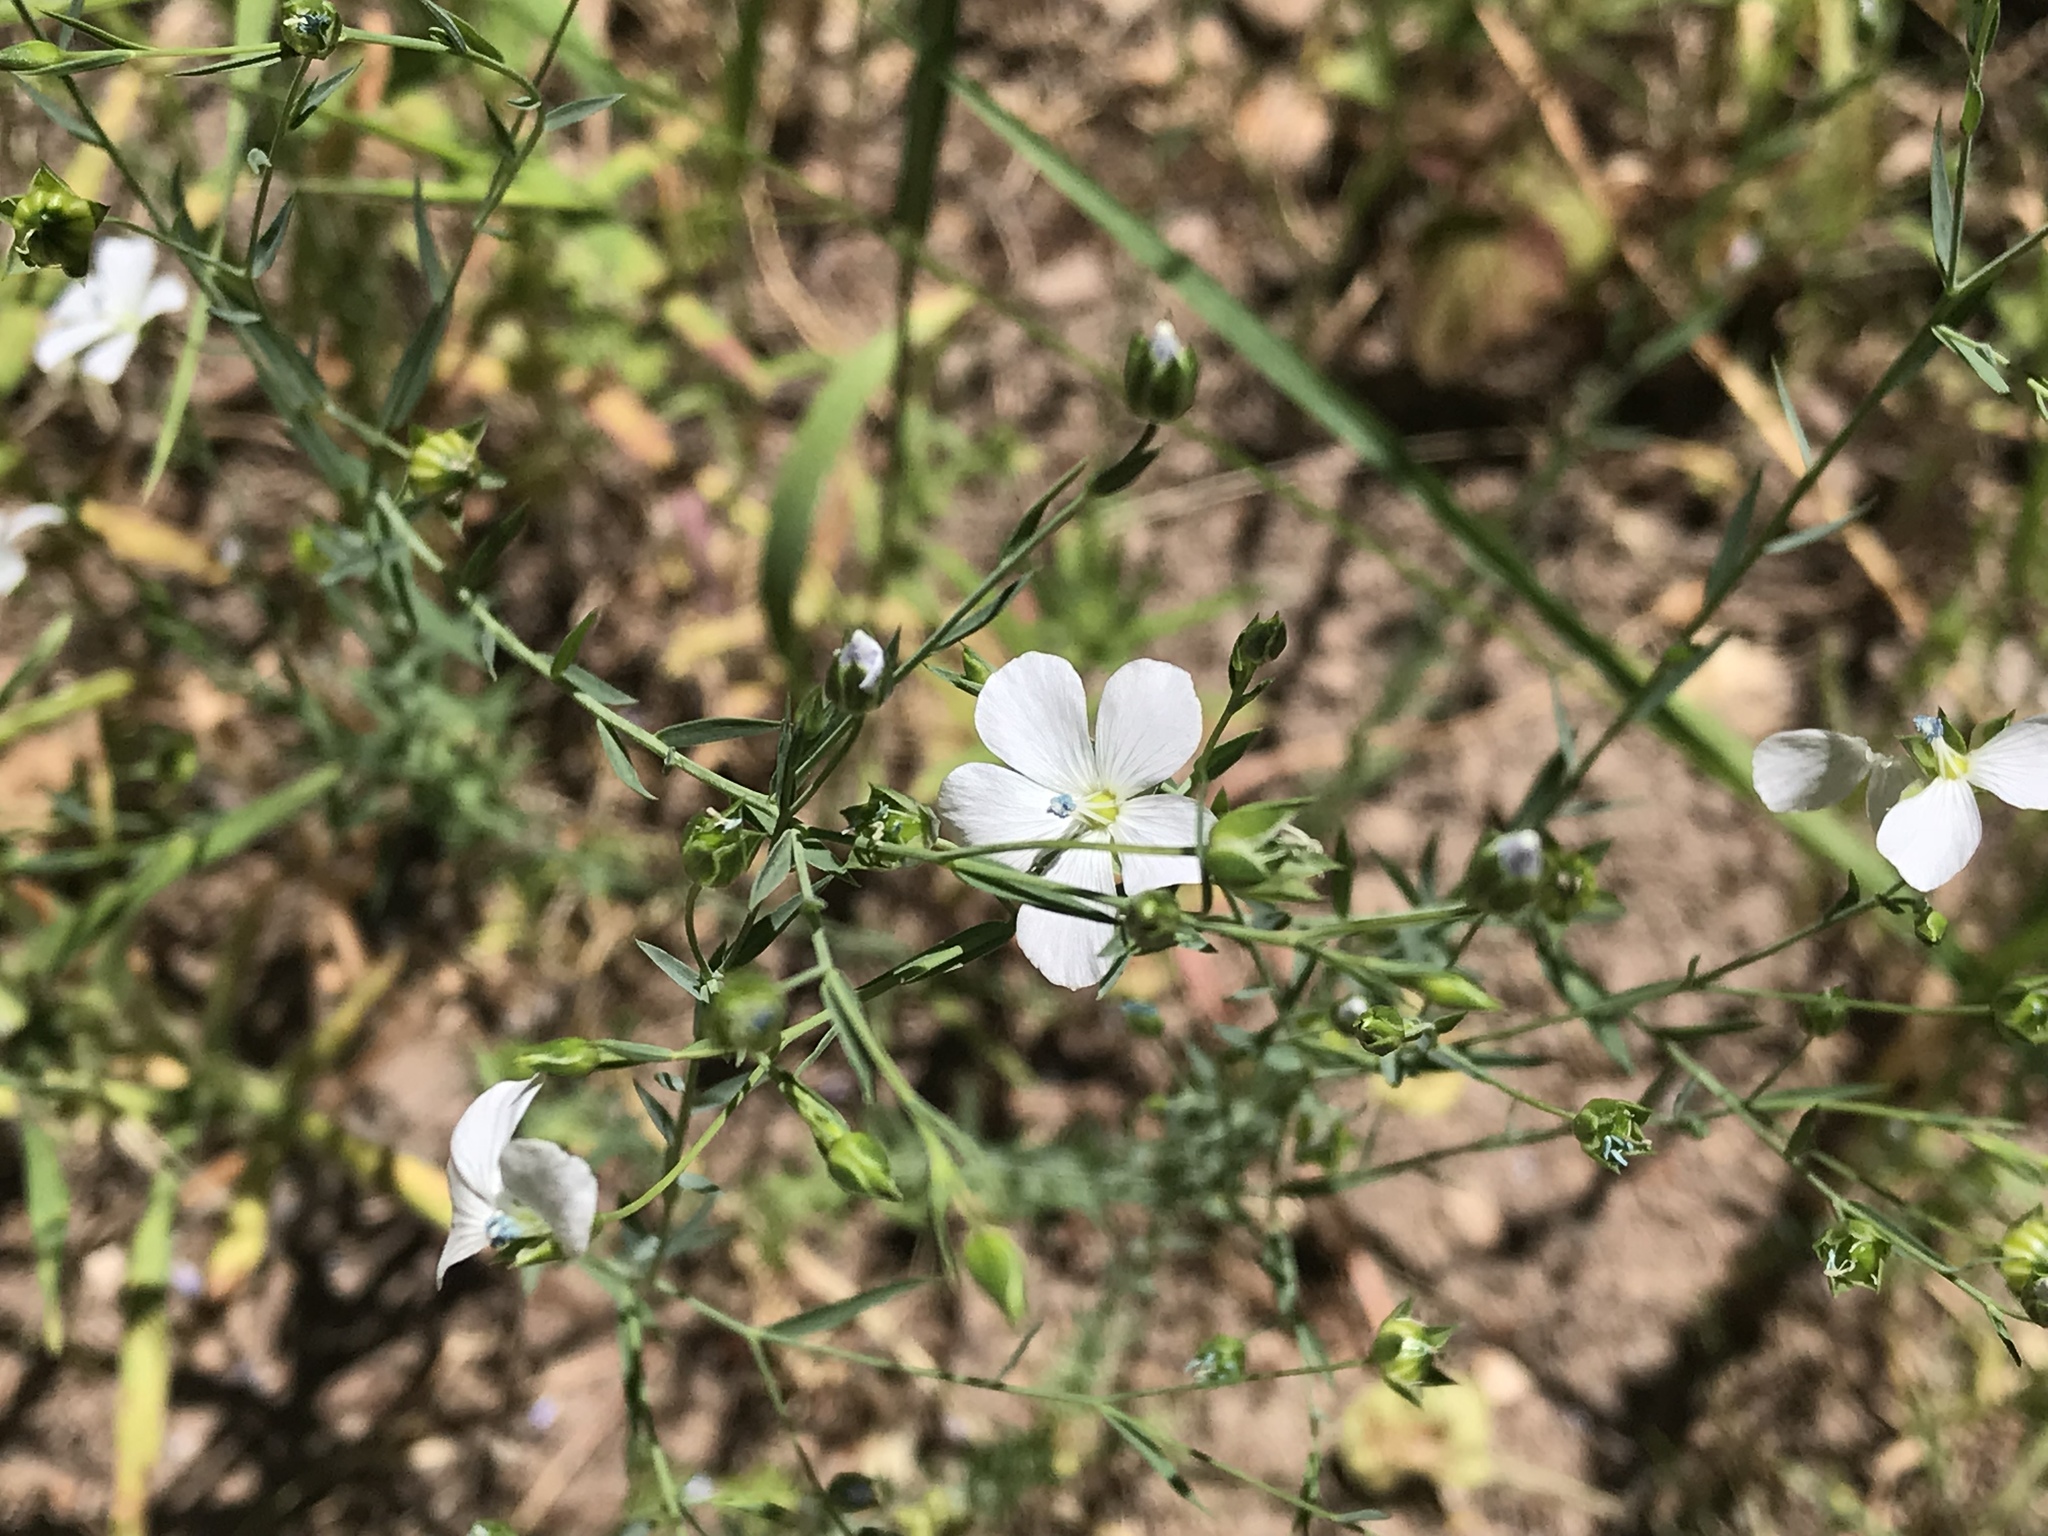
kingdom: Plantae
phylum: Tracheophyta
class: Magnoliopsida
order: Malpighiales
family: Linaceae
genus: Linum
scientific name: Linum bienne
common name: Pale flax
